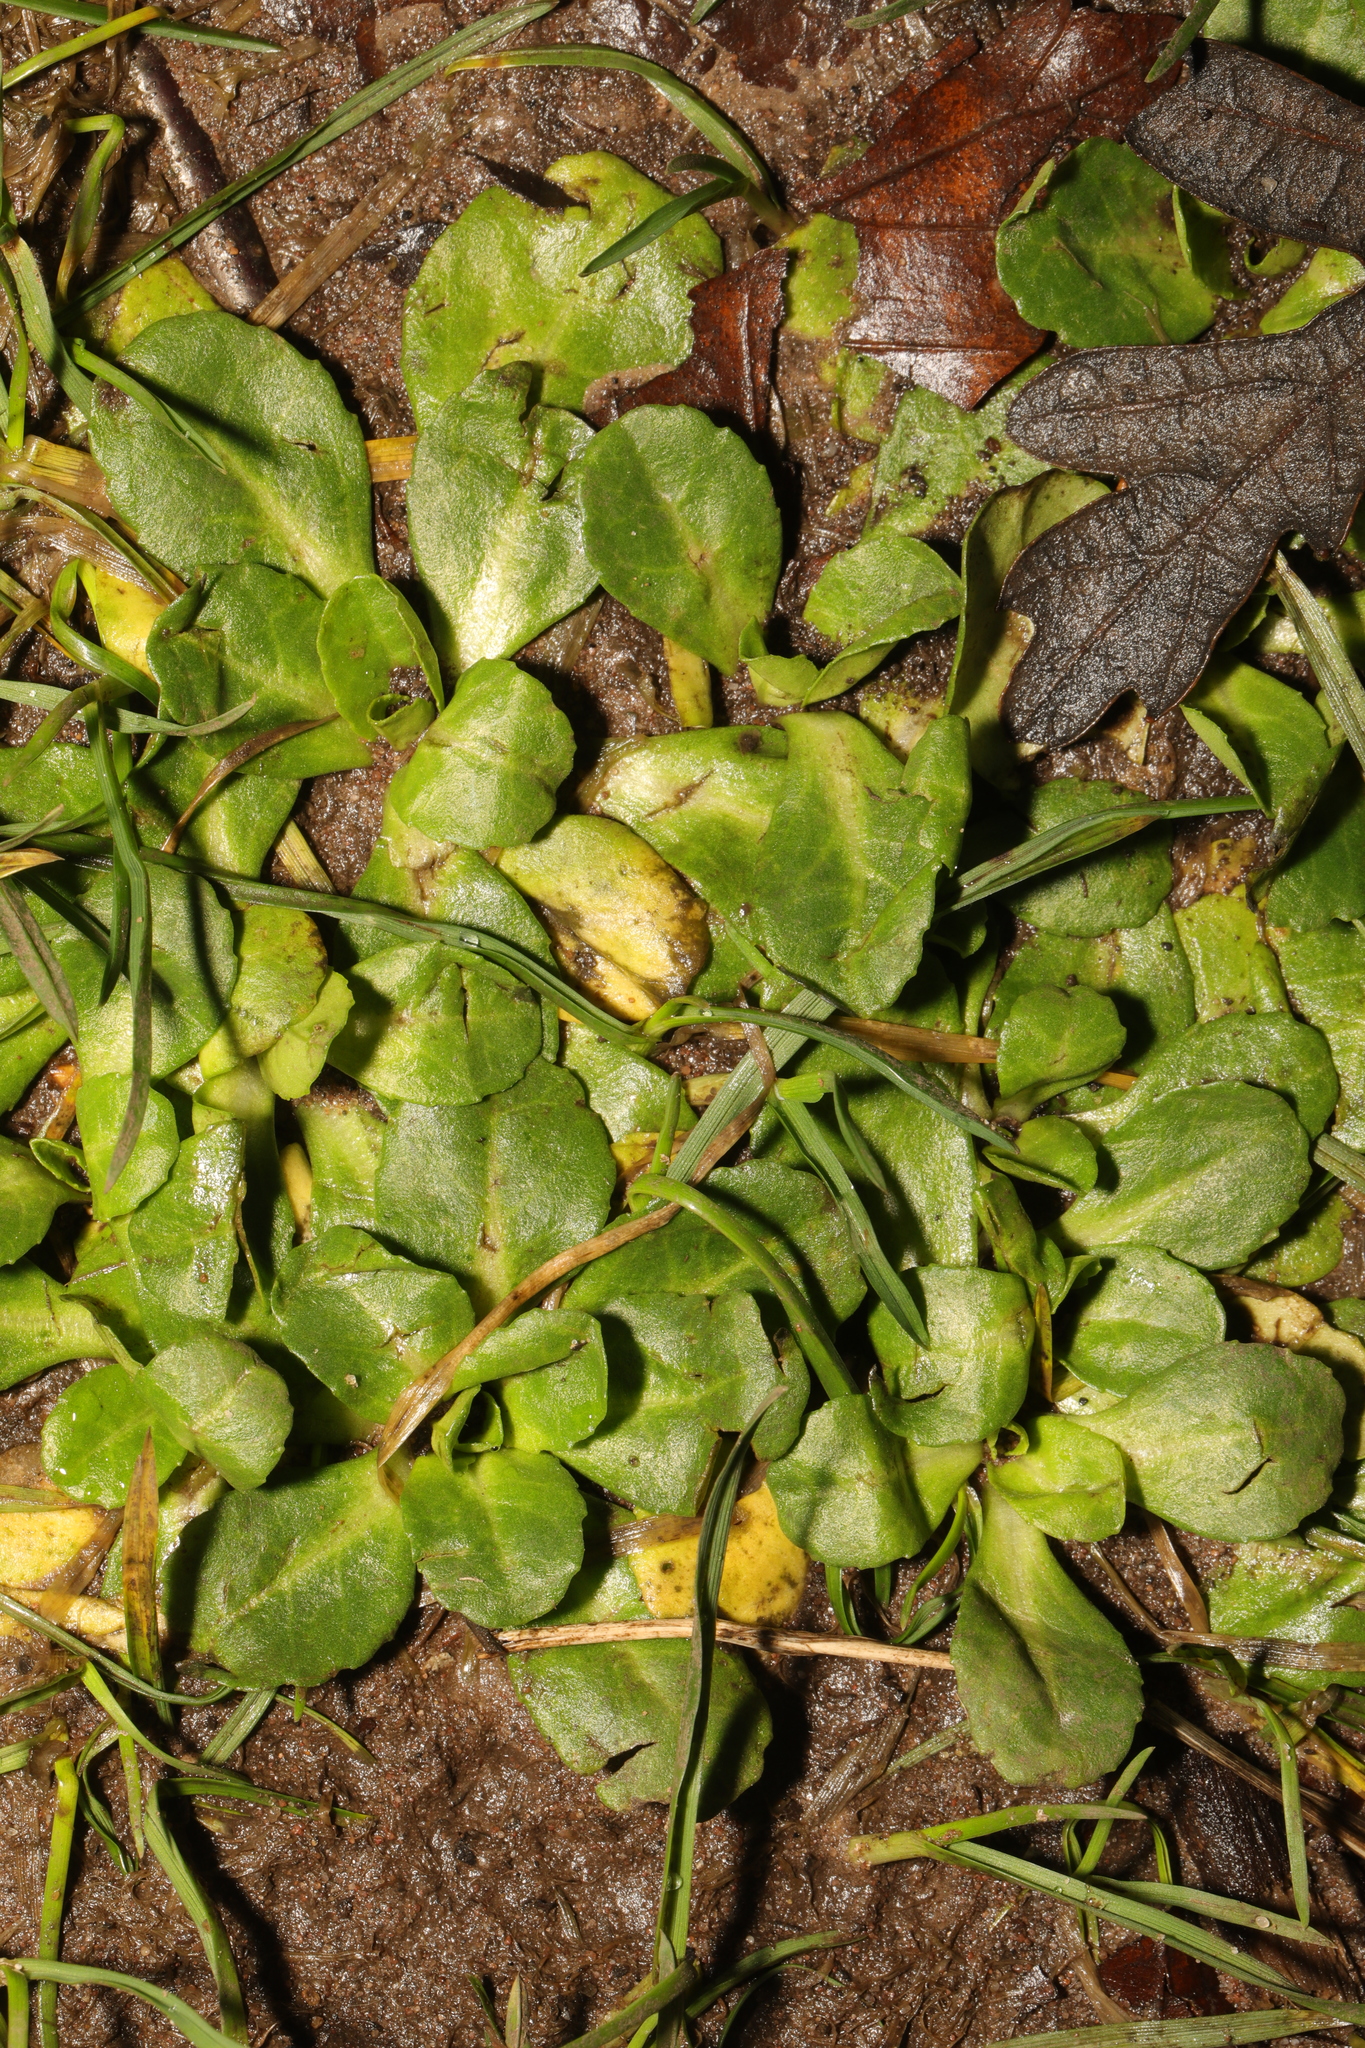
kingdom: Plantae
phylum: Tracheophyta
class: Magnoliopsida
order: Asterales
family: Asteraceae
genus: Bellis
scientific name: Bellis perennis
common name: Lawndaisy
